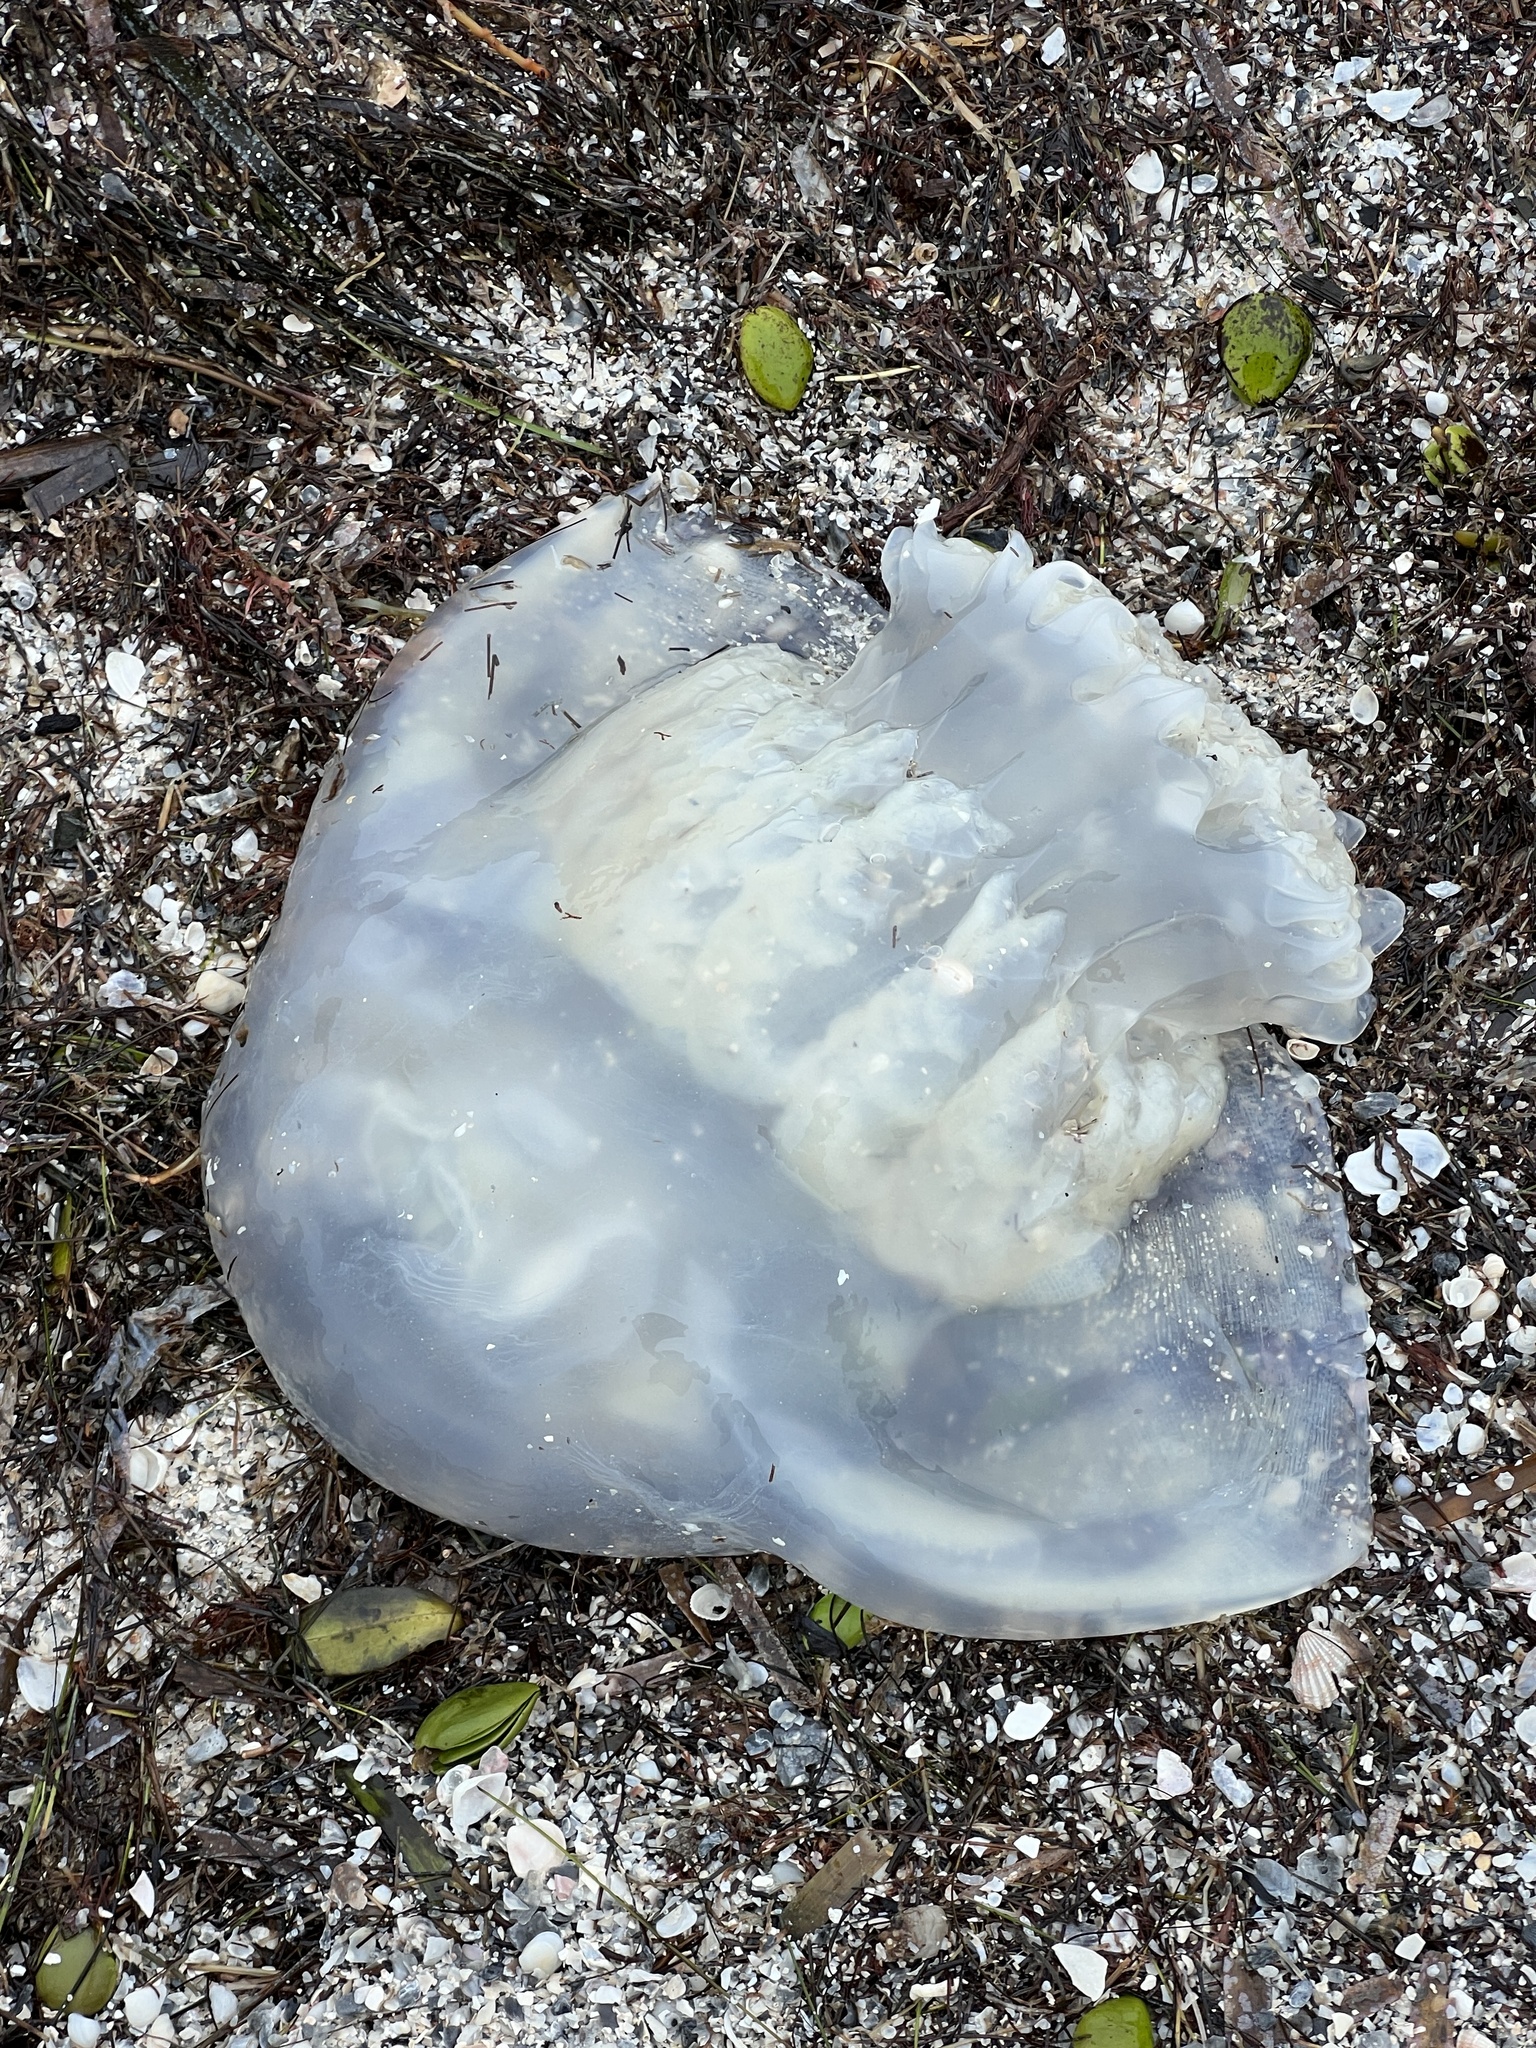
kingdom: Animalia
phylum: Cnidaria
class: Scyphozoa
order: Rhizostomeae
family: Stomolophidae
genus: Stomolophus
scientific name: Stomolophus meleagris
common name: Cabbagehead
